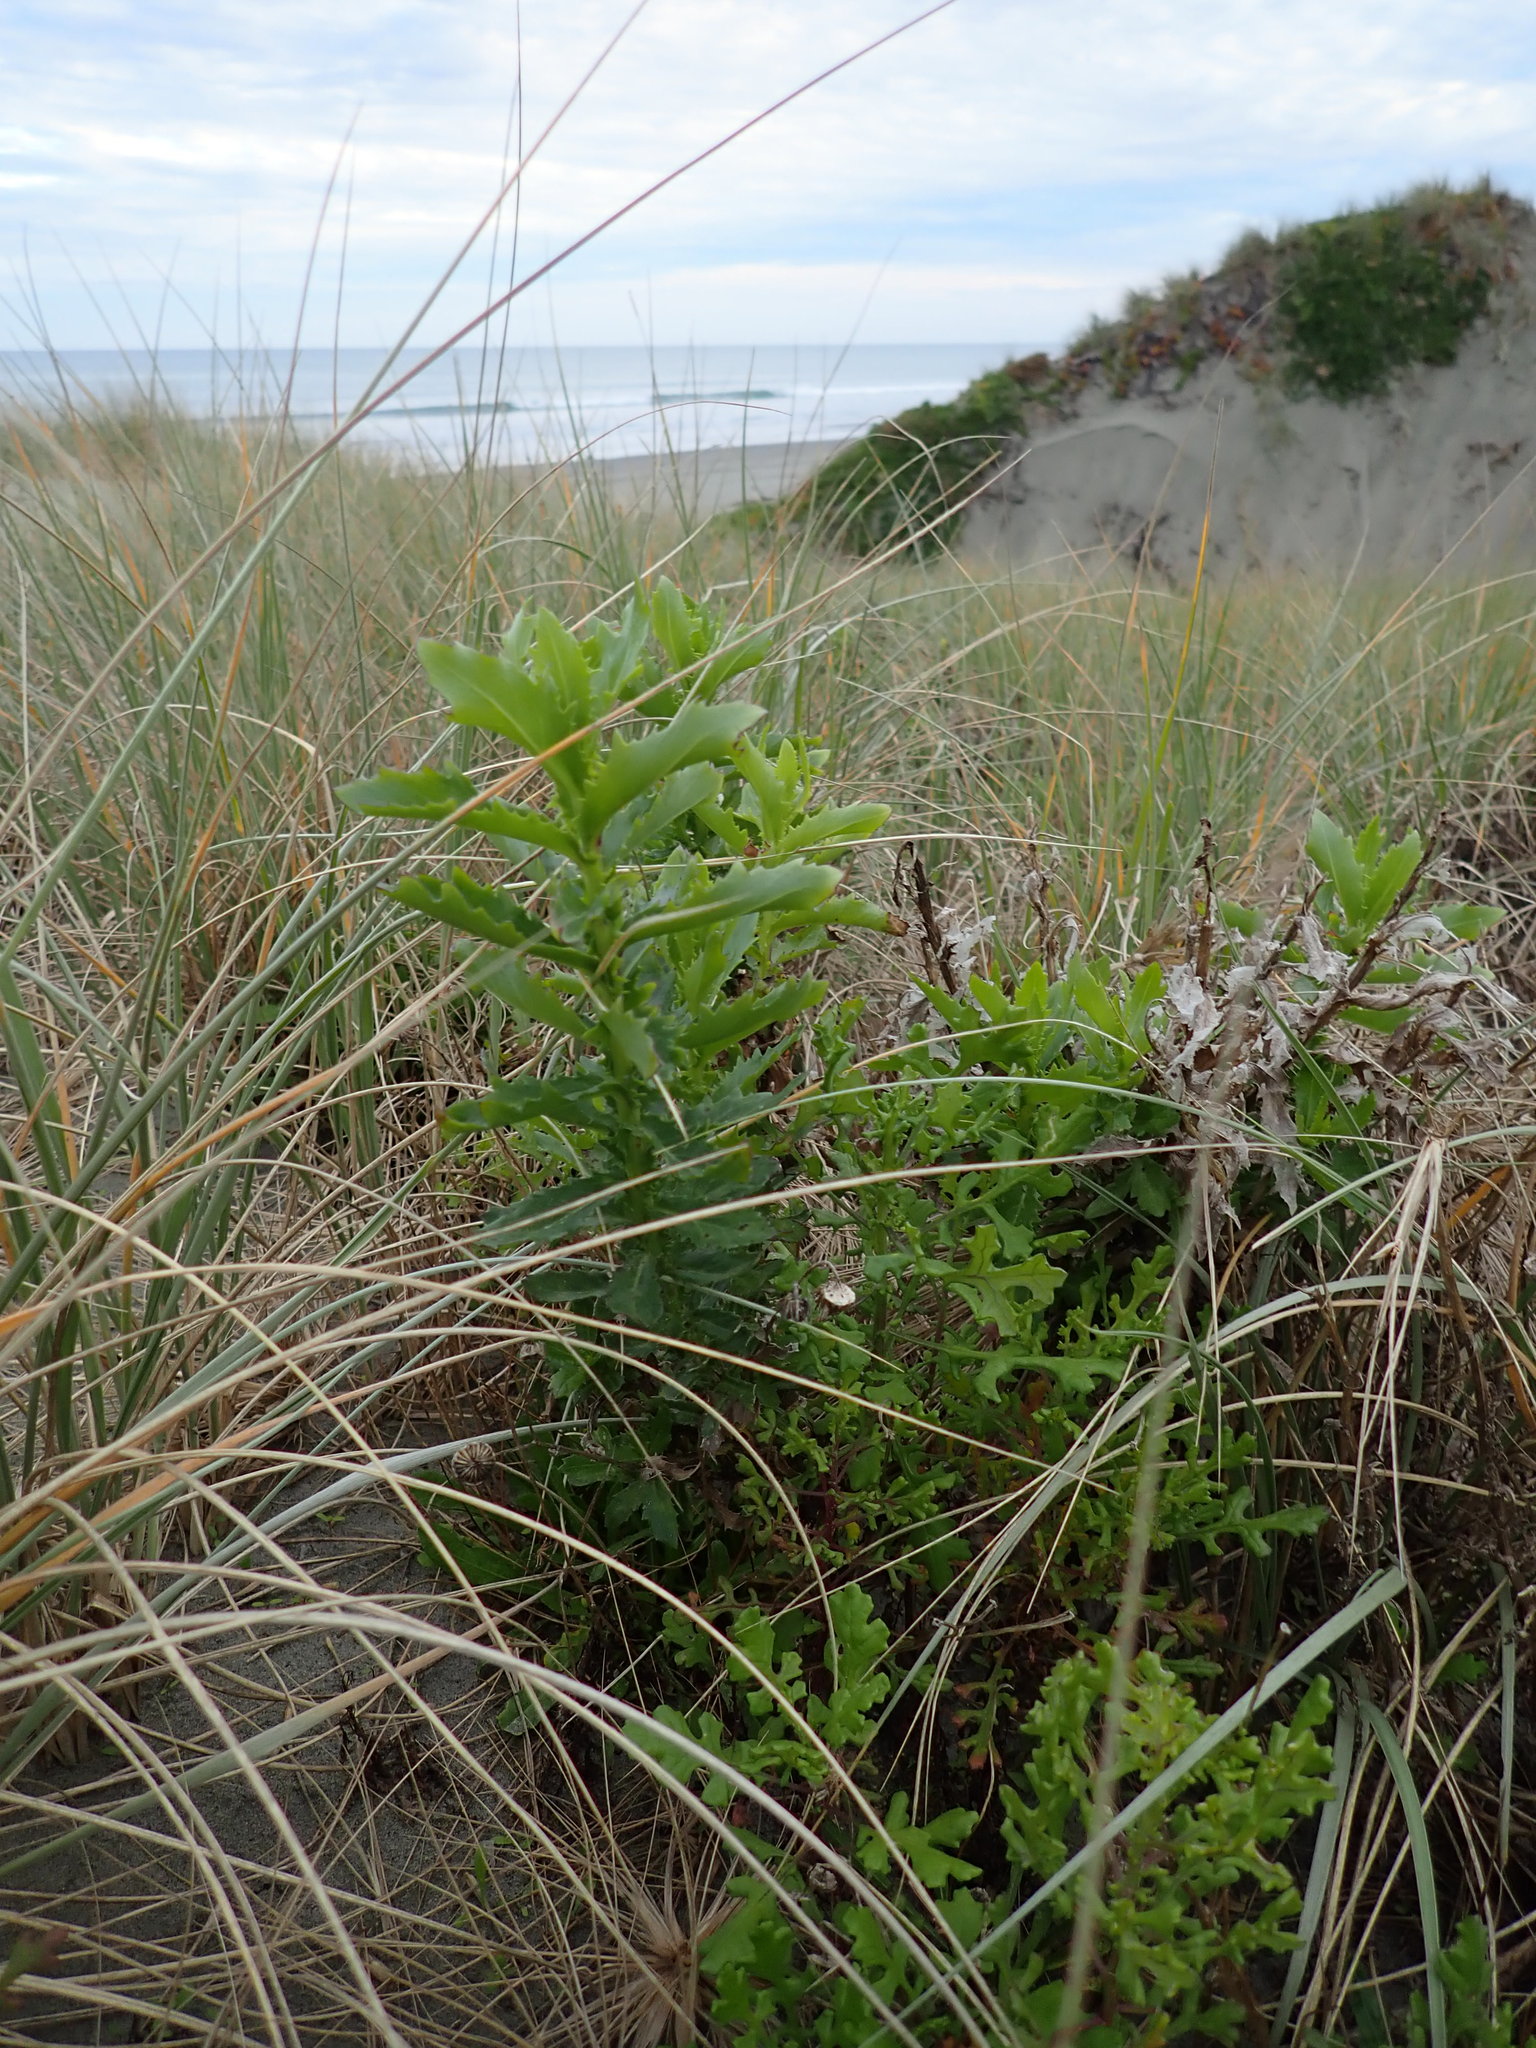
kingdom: Plantae
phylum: Tracheophyta
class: Magnoliopsida
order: Asterales
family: Asteraceae
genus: Senecio
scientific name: Senecio glastifolius
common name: Woad-leaved ragwort
